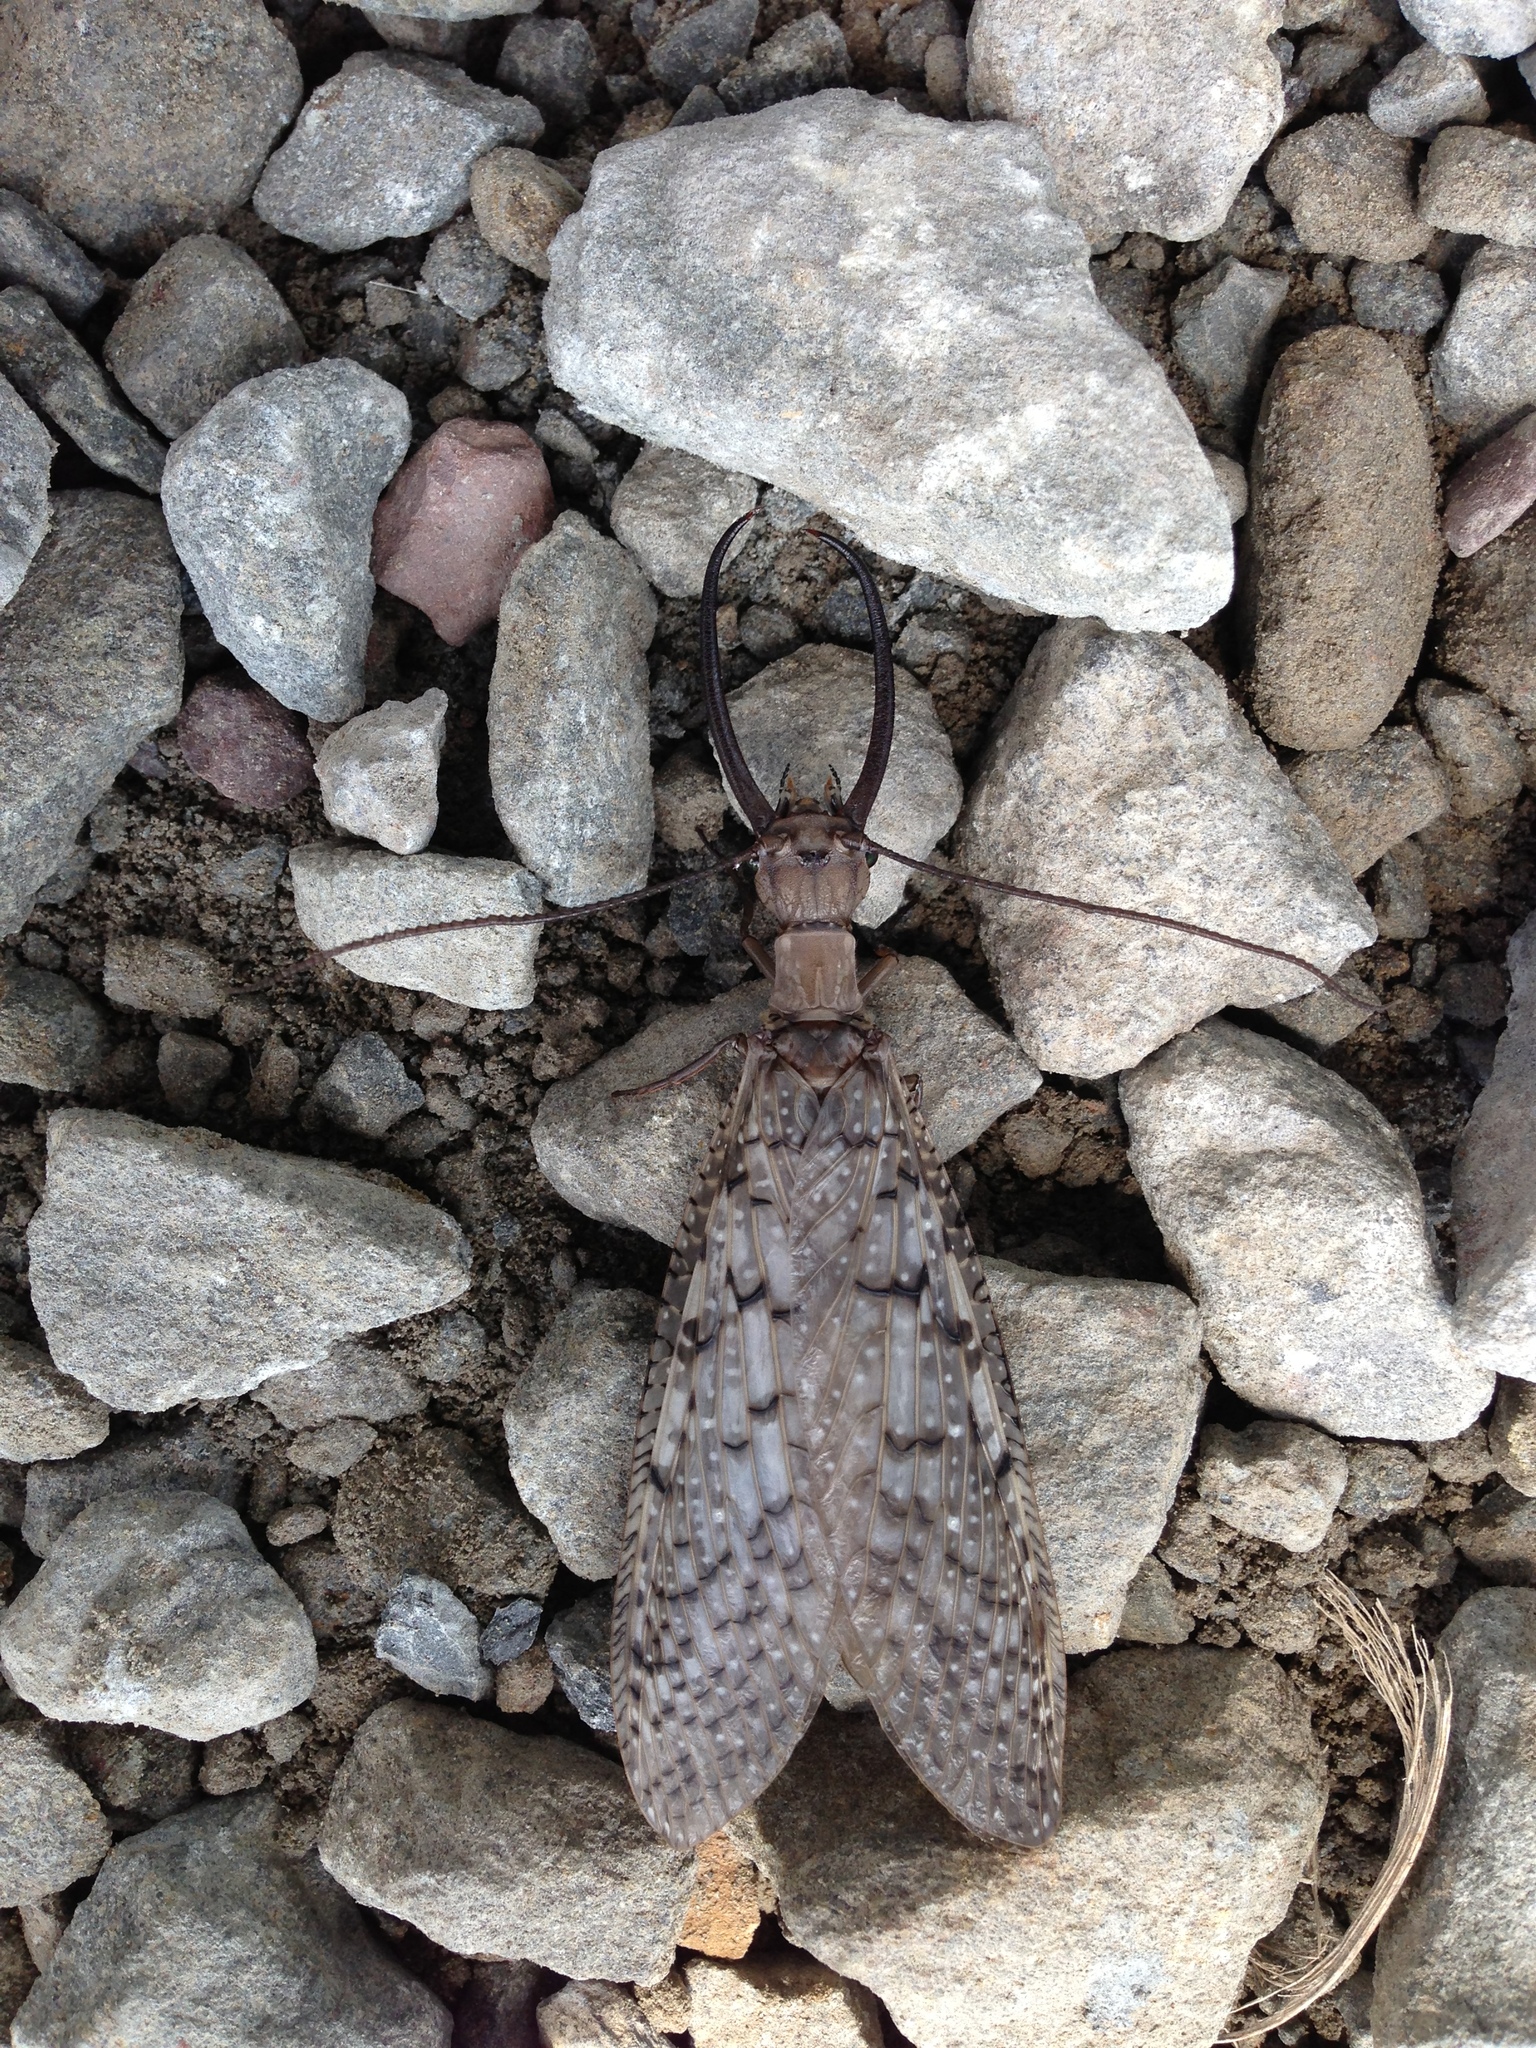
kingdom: Animalia
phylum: Arthropoda
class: Insecta
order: Megaloptera
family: Corydalidae
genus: Corydalus
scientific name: Corydalus cornutus
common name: Dobsonfly
